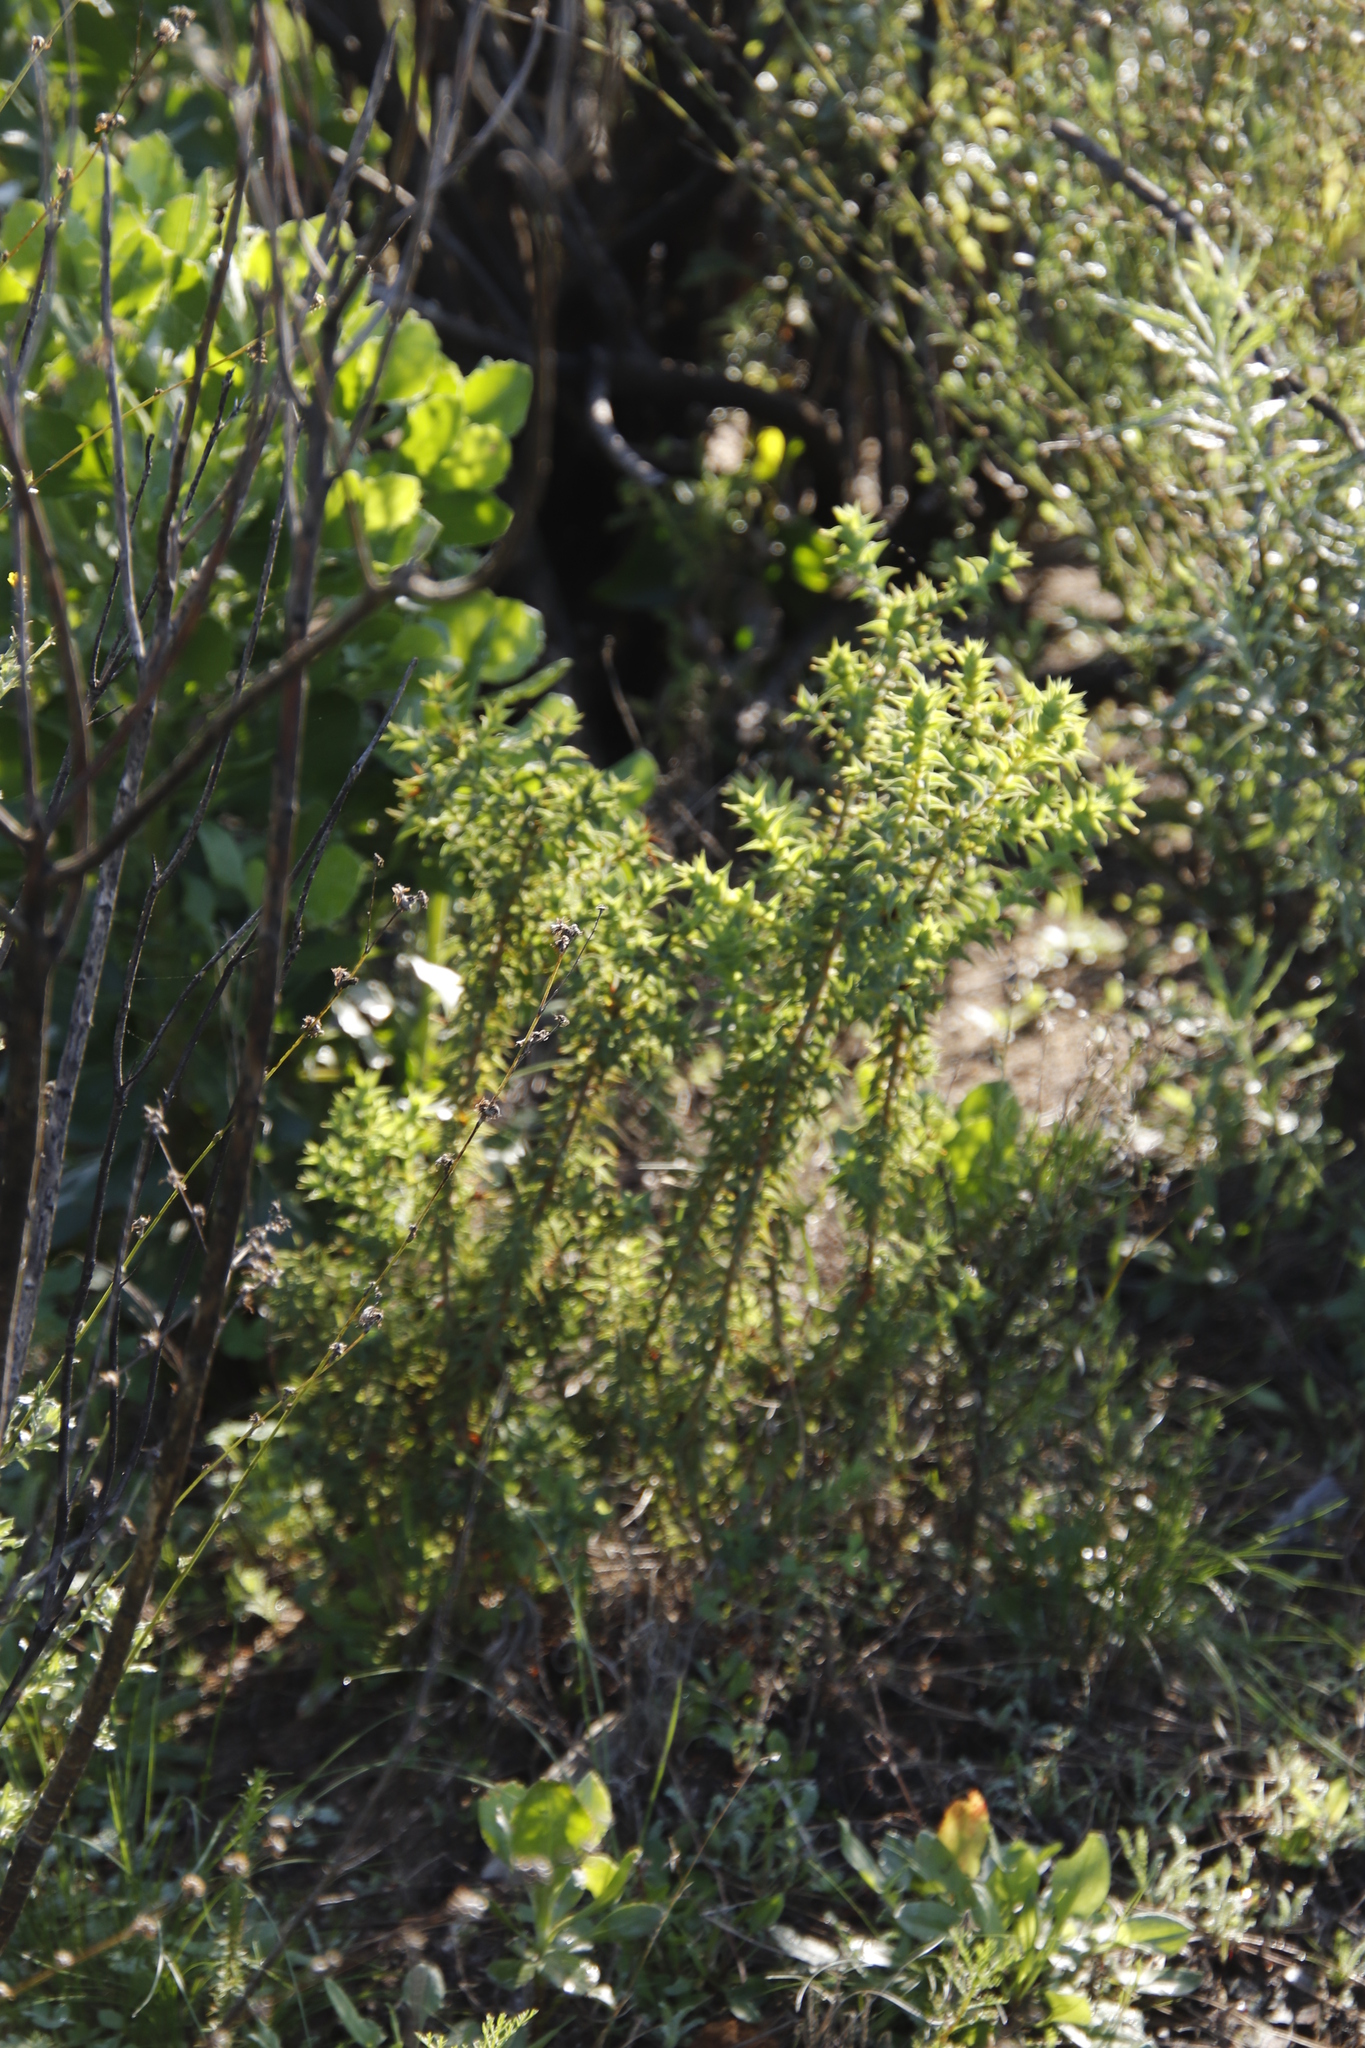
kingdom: Plantae
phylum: Tracheophyta
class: Magnoliopsida
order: Fabales
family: Fabaceae
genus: Aspalathus
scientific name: Aspalathus cordata
